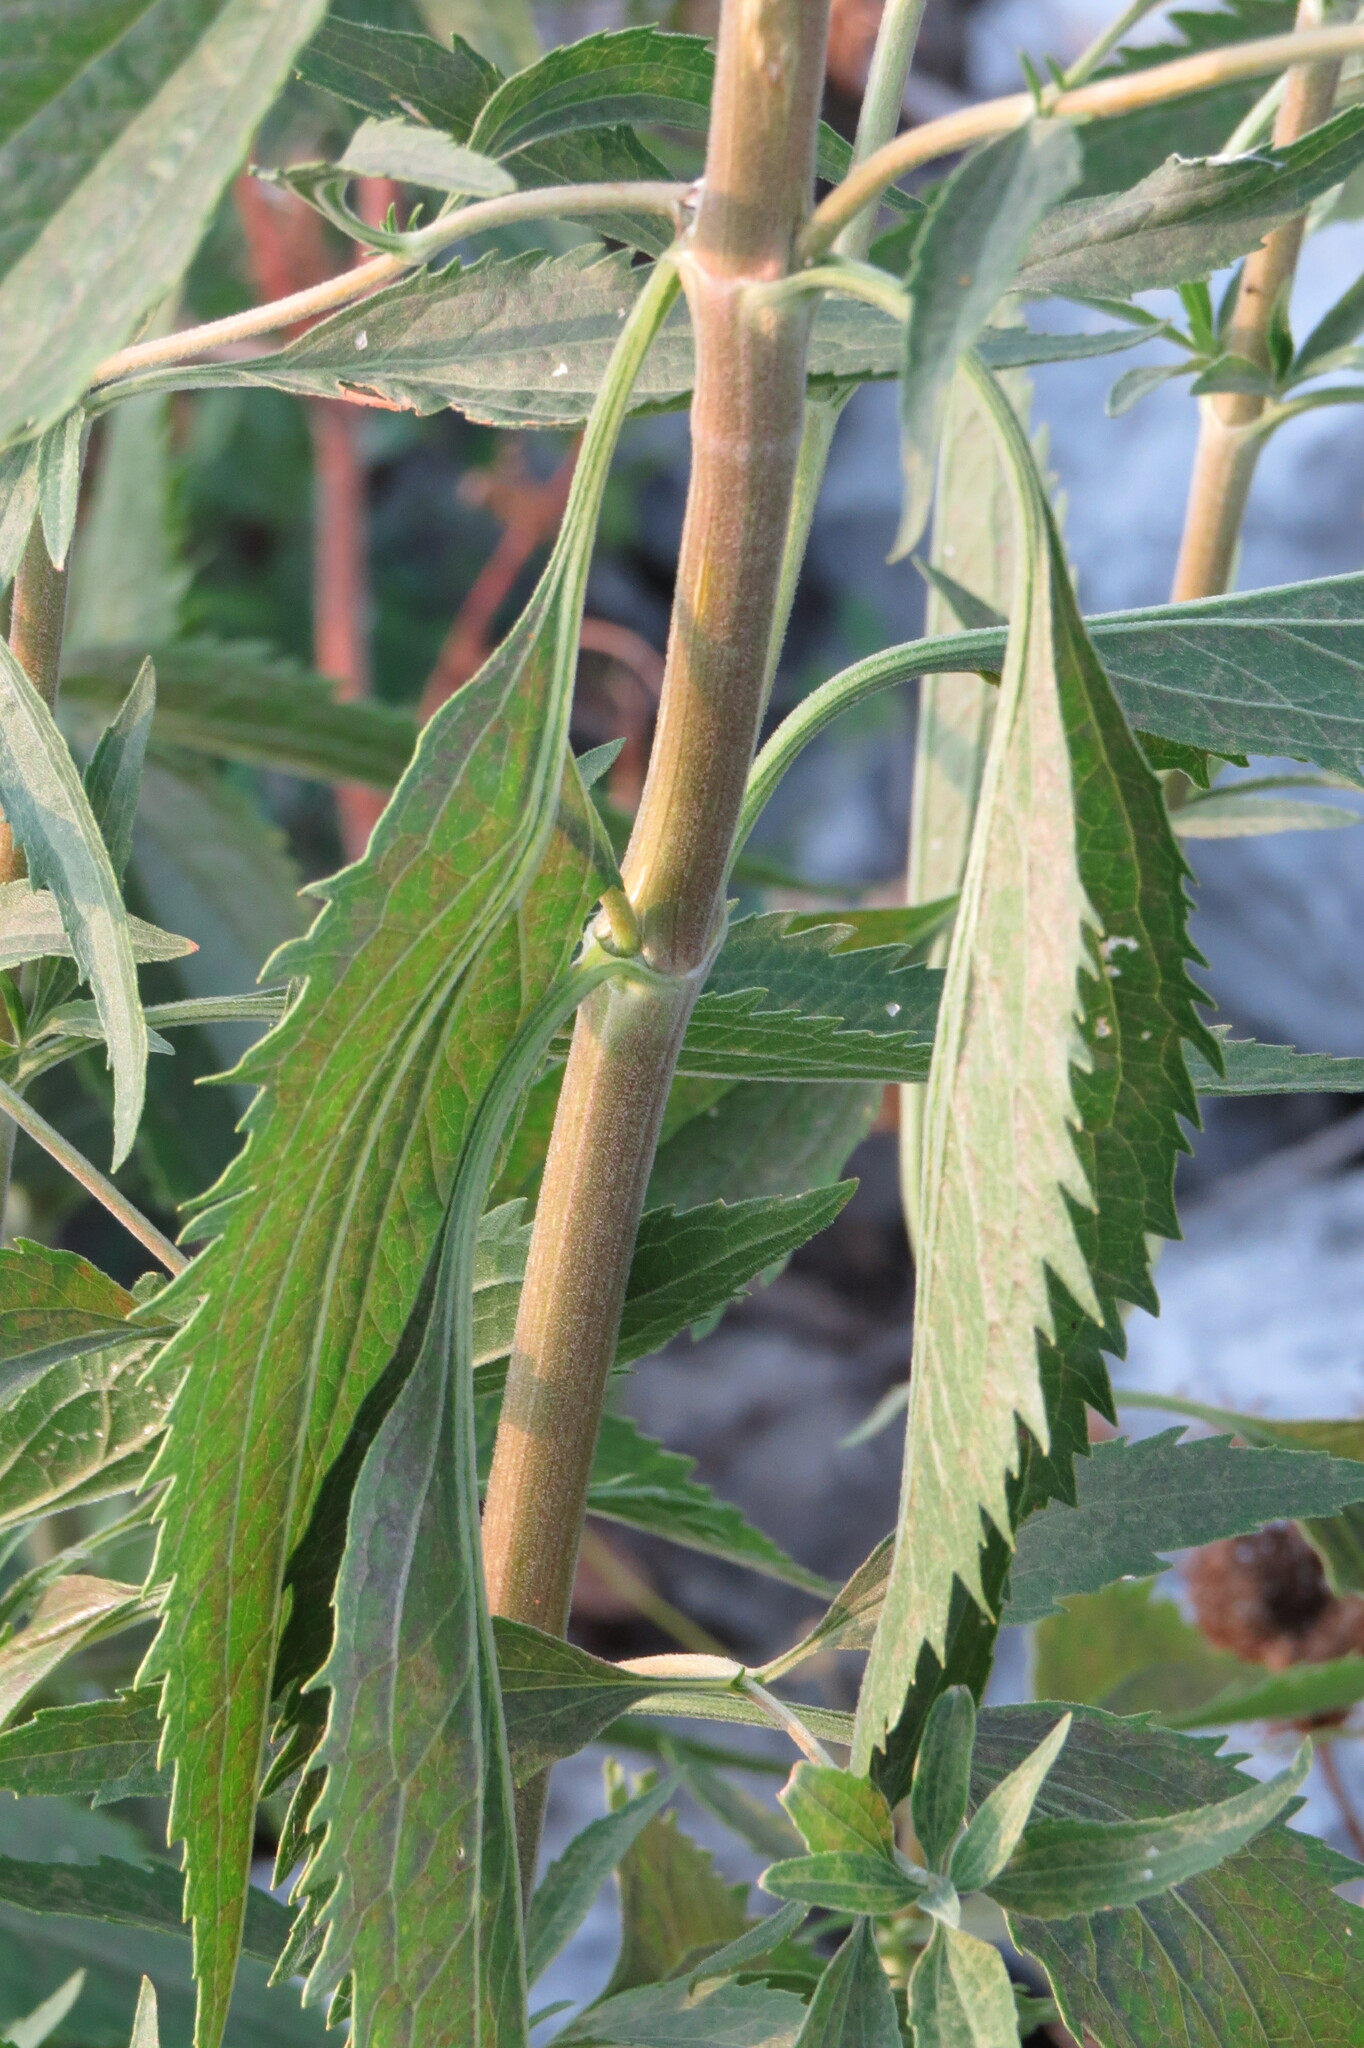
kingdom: Plantae
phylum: Tracheophyta
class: Magnoliopsida
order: Asterales
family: Asteraceae
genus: Eupatorium
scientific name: Eupatorium serotinum
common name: Late boneset
